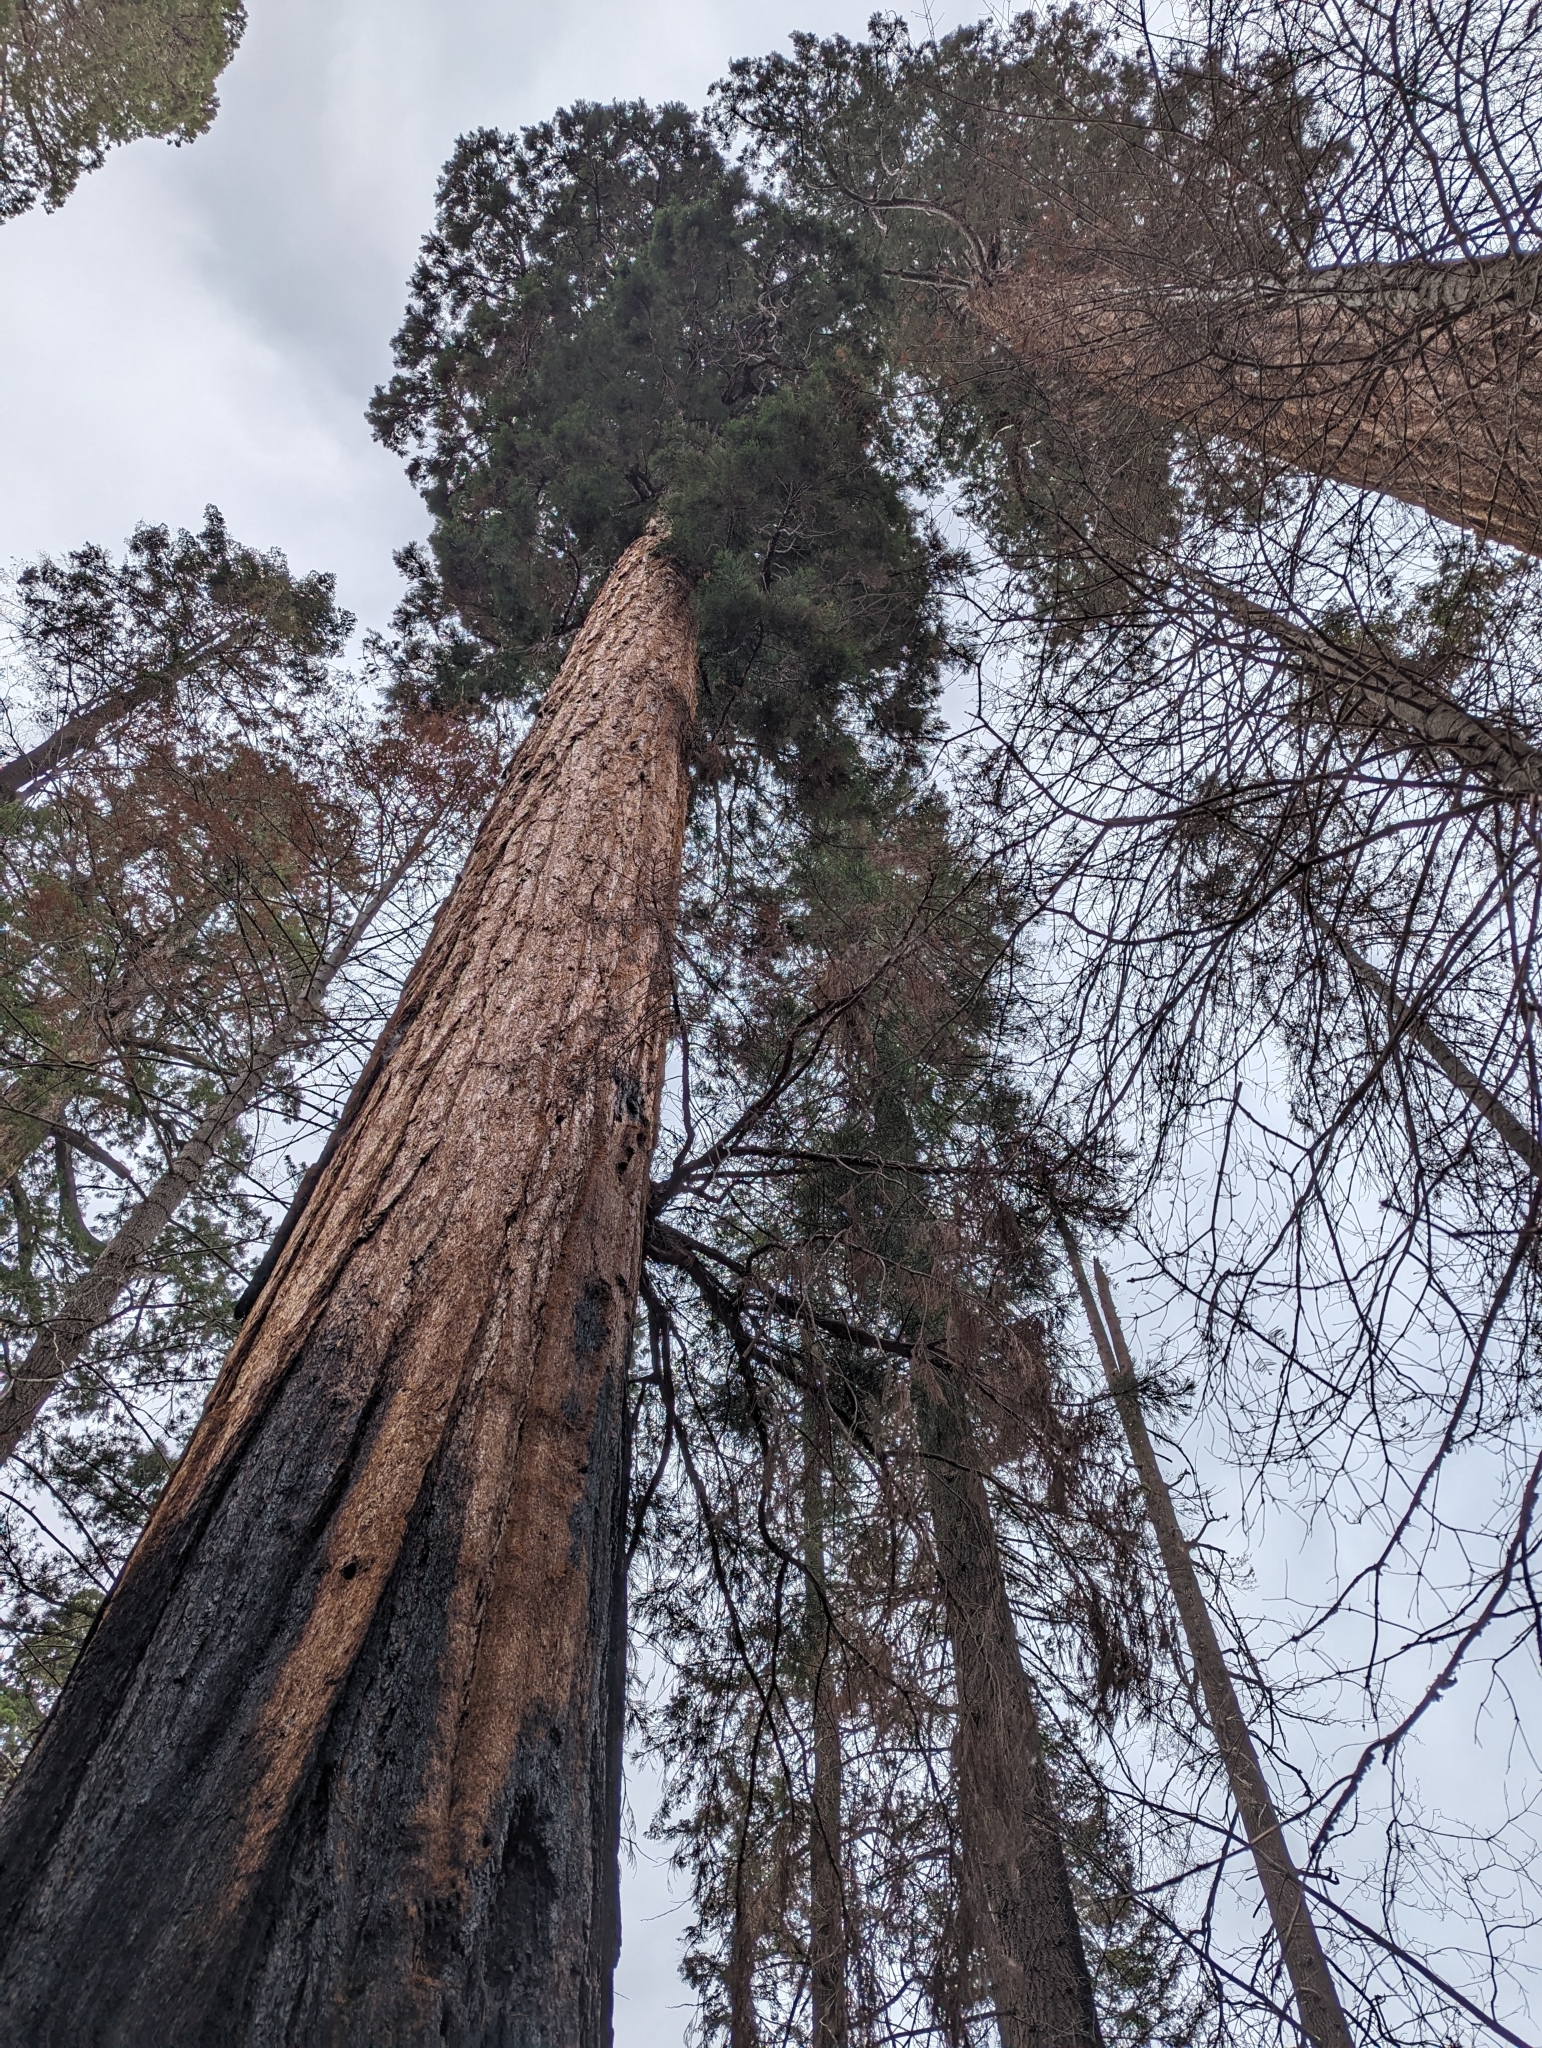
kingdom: Plantae
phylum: Tracheophyta
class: Pinopsida
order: Pinales
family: Cupressaceae
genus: Sequoiadendron
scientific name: Sequoiadendron giganteum
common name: Wellingtonia
